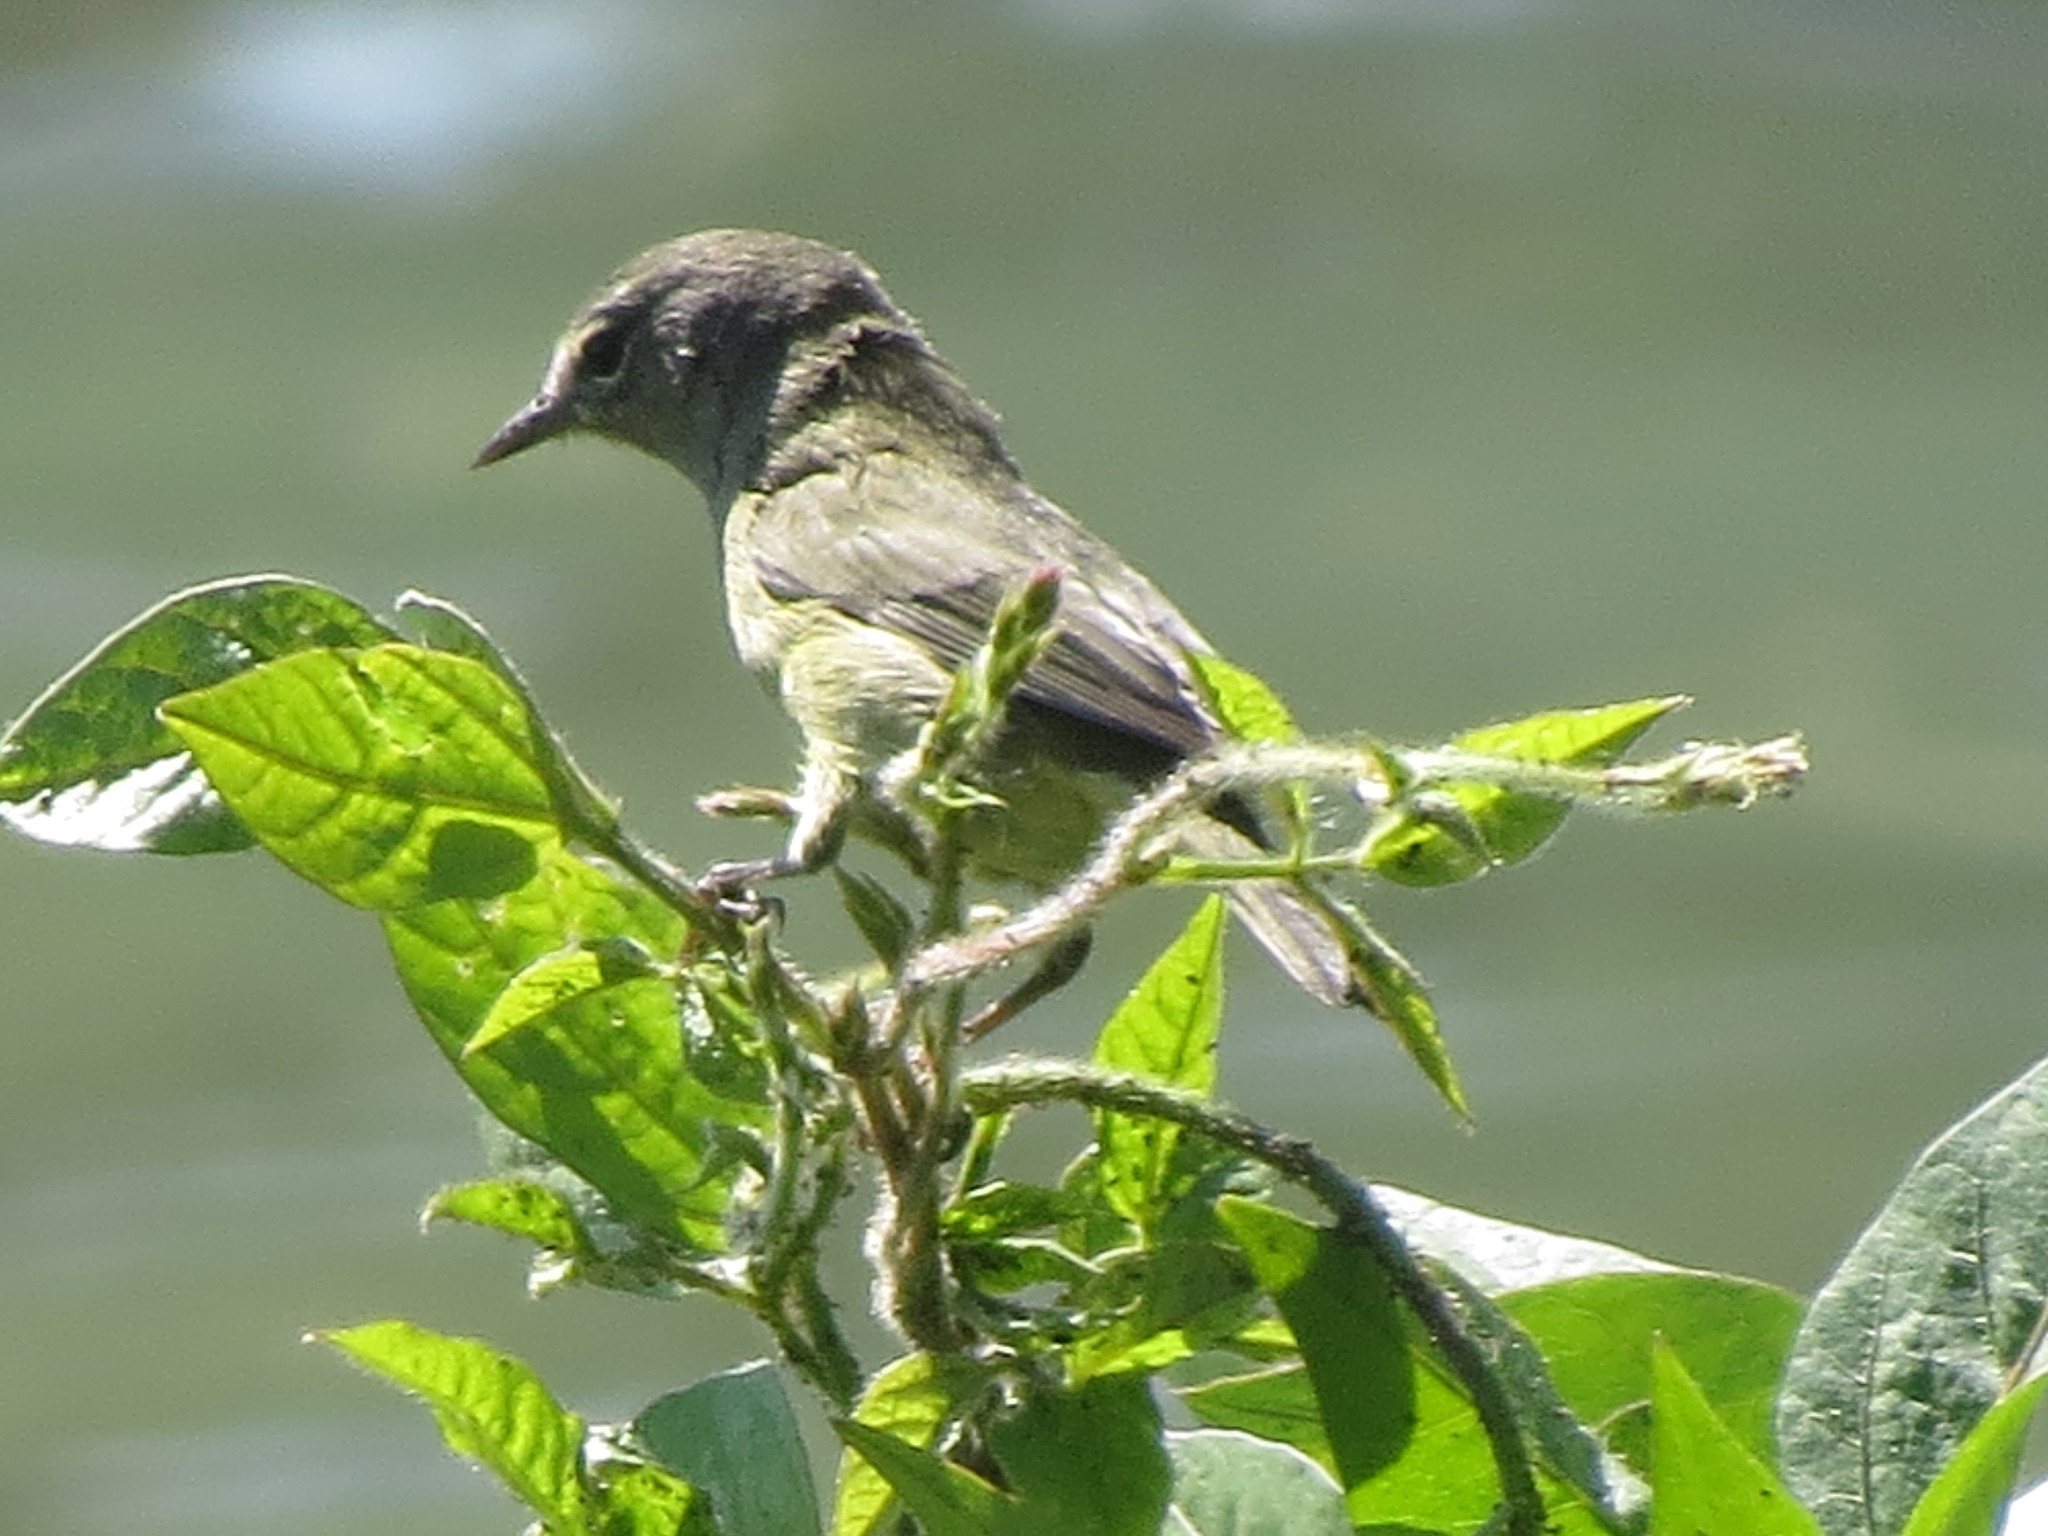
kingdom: Animalia
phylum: Chordata
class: Aves
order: Passeriformes
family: Parulidae
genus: Leiothlypis
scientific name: Leiothlypis celata
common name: Orange-crowned warbler
